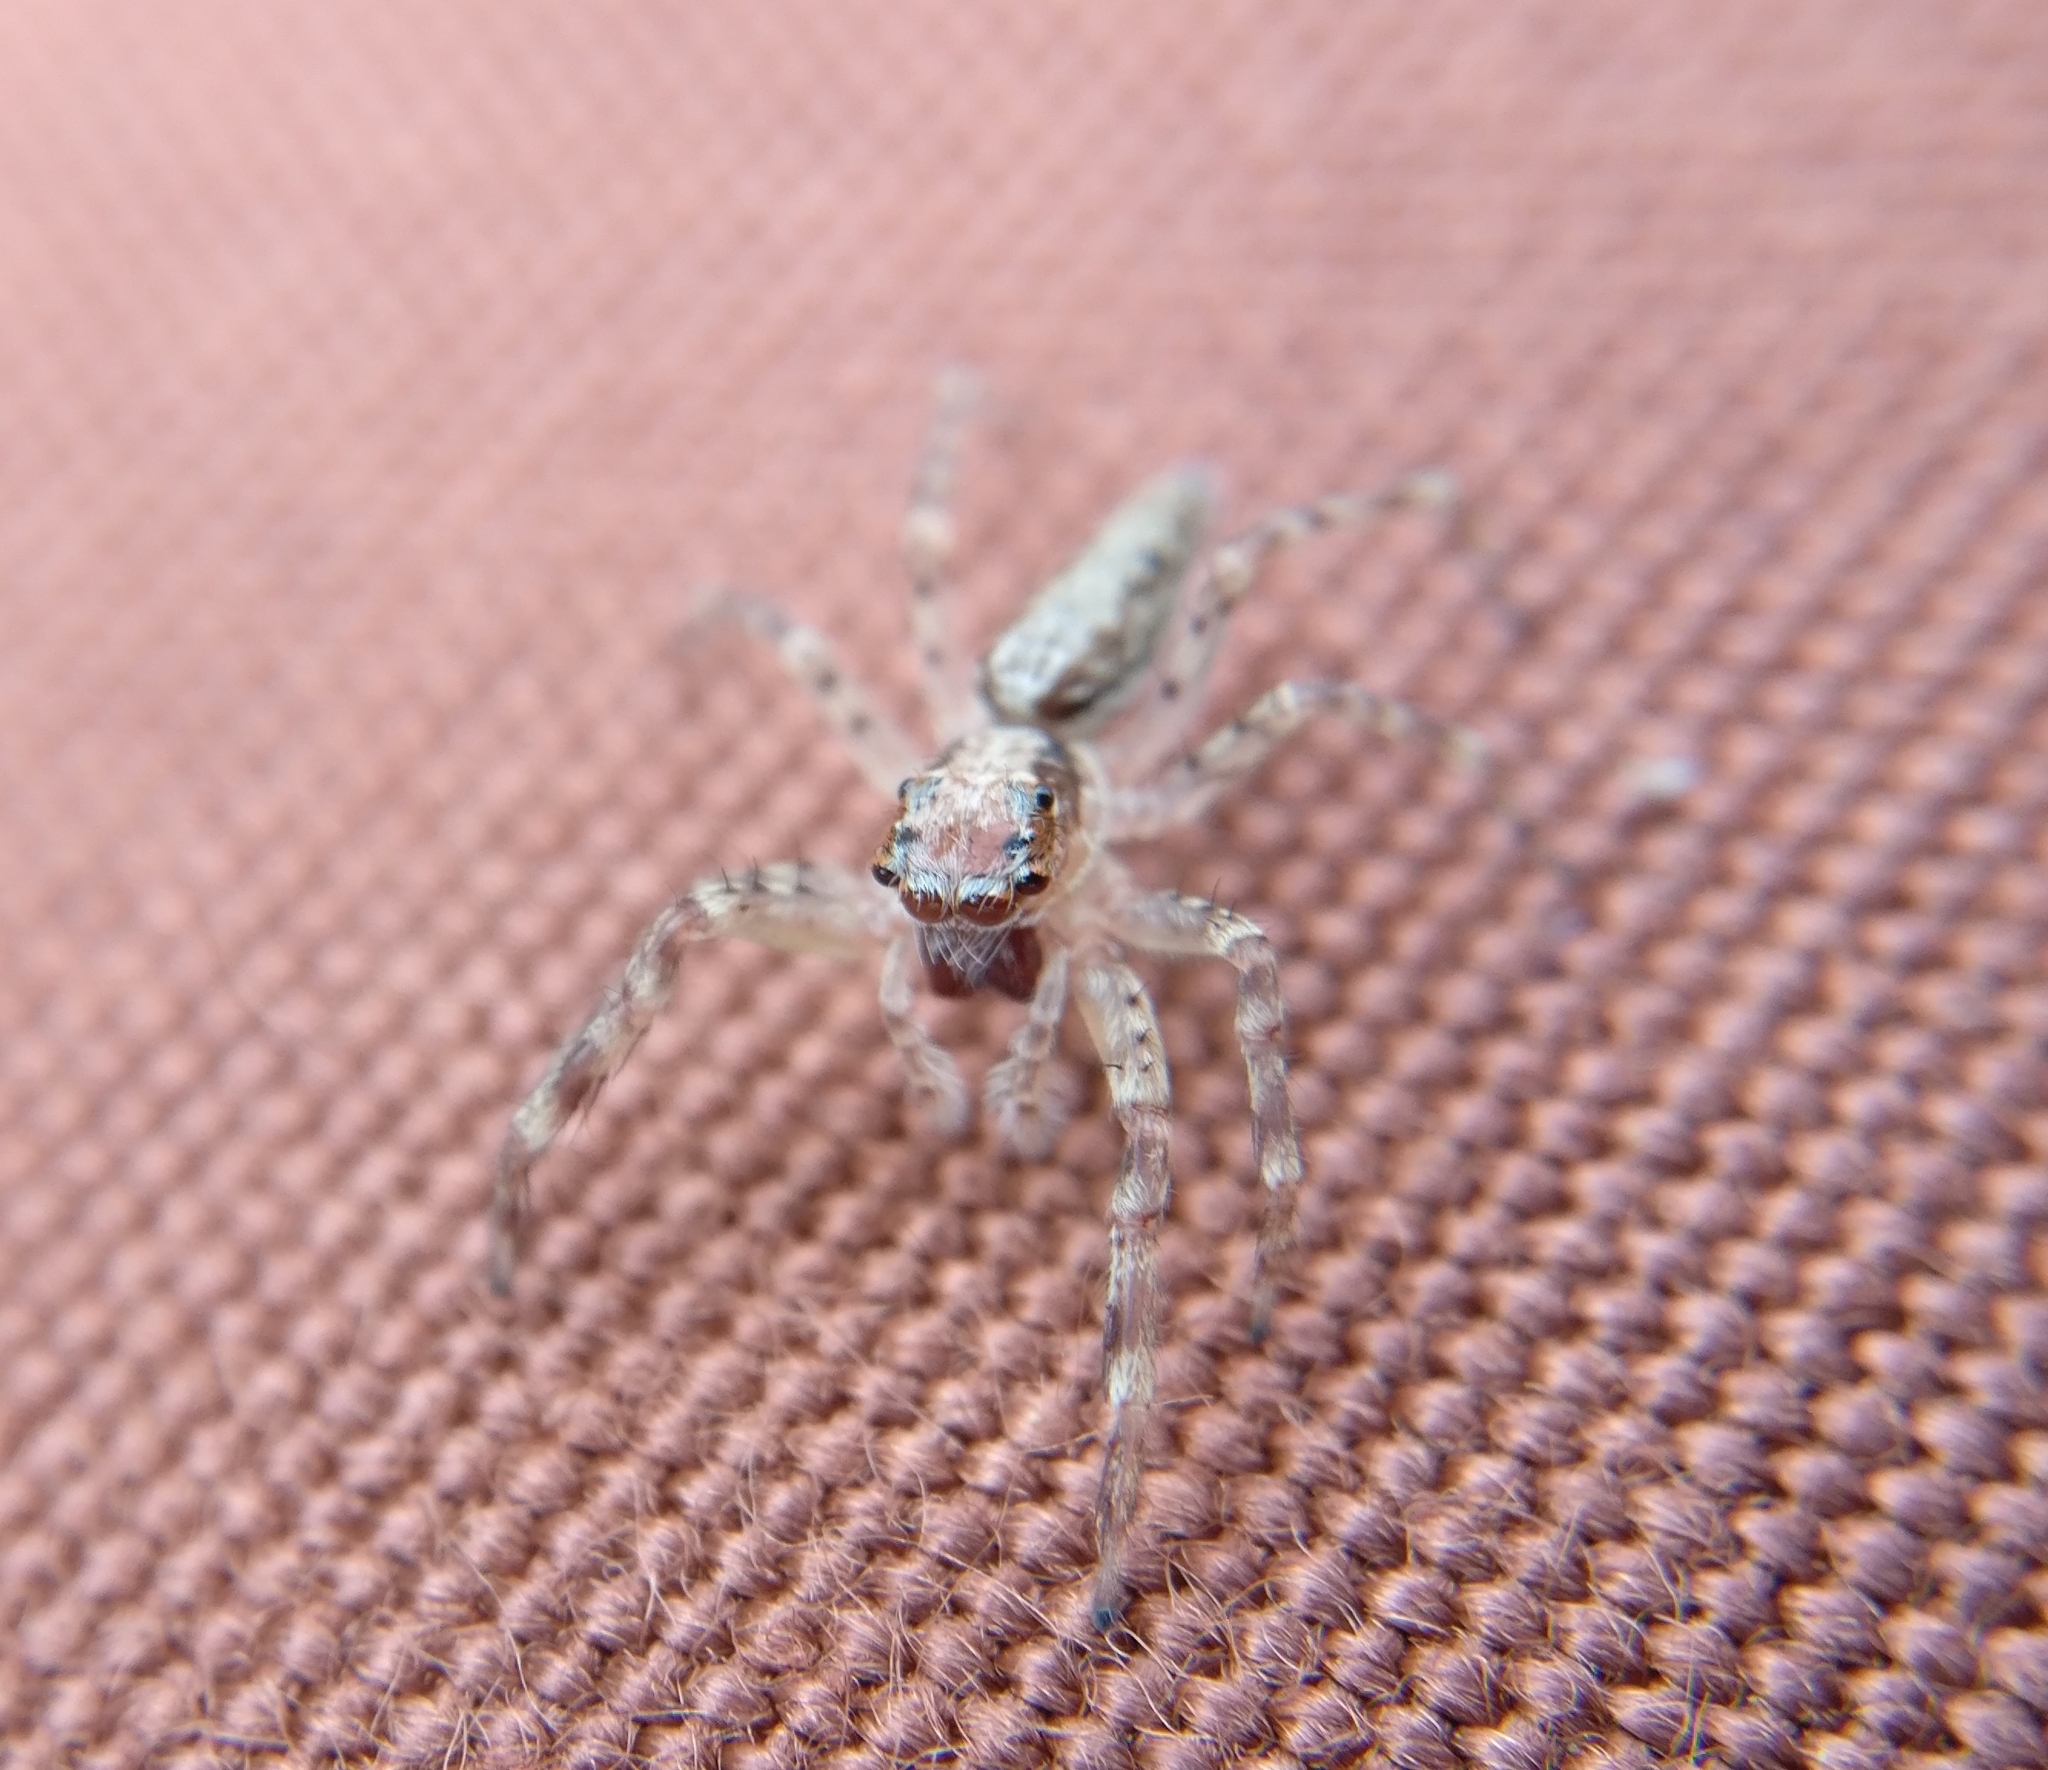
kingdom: Animalia
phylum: Arthropoda
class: Arachnida
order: Araneae
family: Salticidae
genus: Helpis
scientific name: Helpis minitabunda
